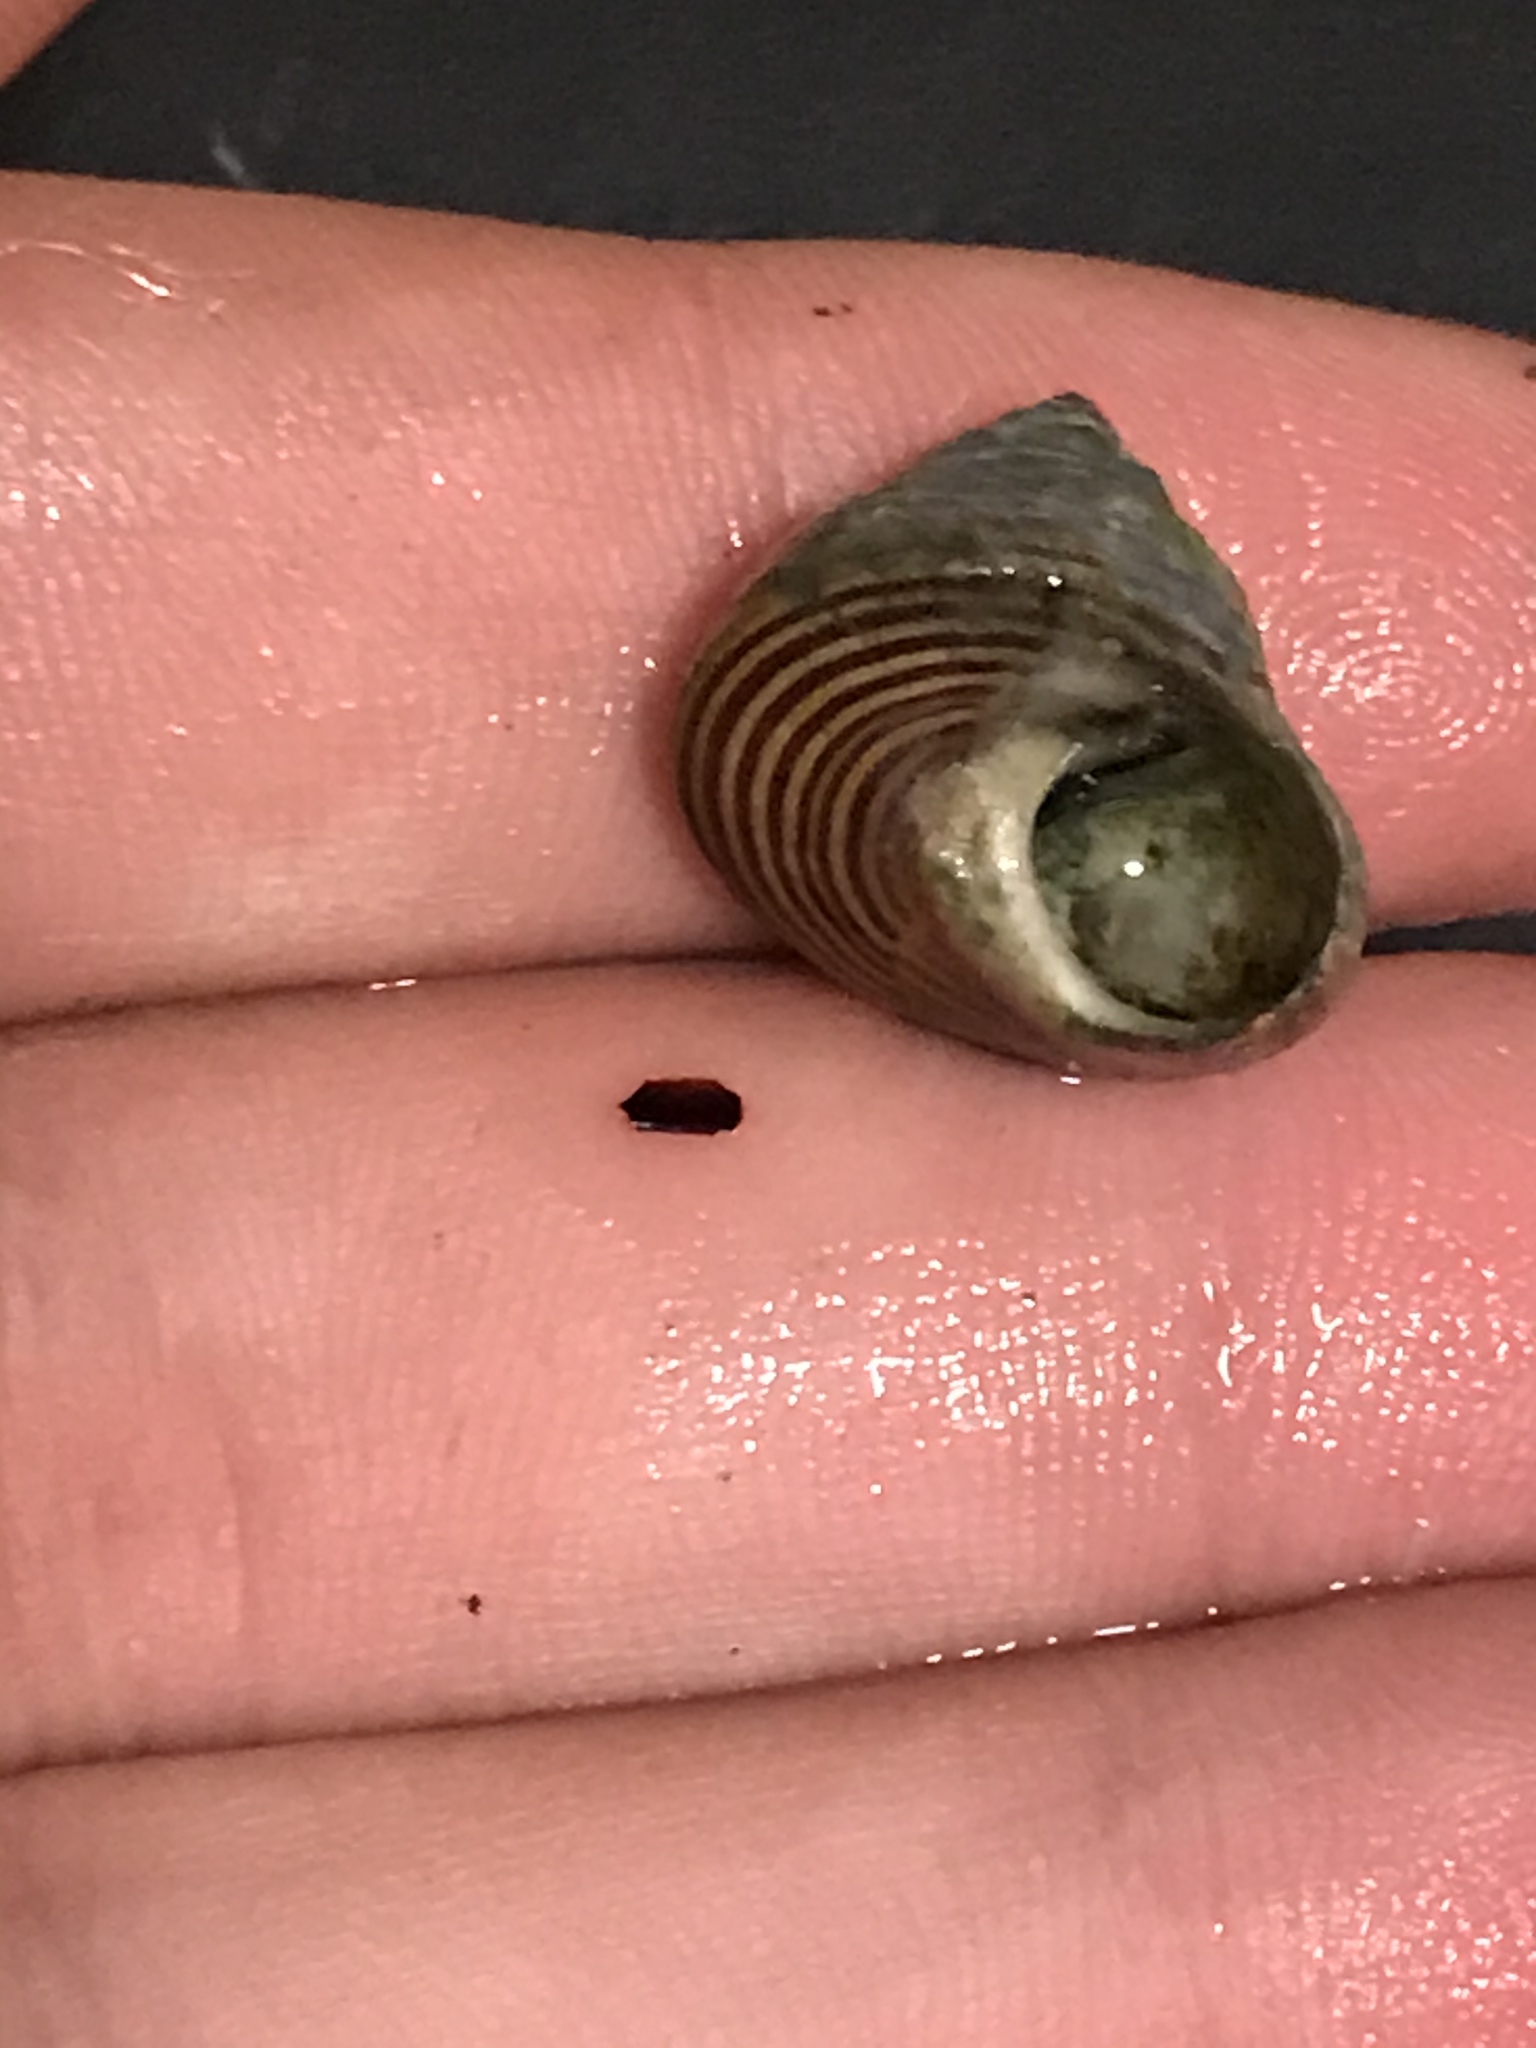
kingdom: Animalia
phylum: Mollusca
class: Gastropoda
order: Trochida
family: Calliostomatidae
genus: Calliostoma
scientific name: Calliostoma ligatum
